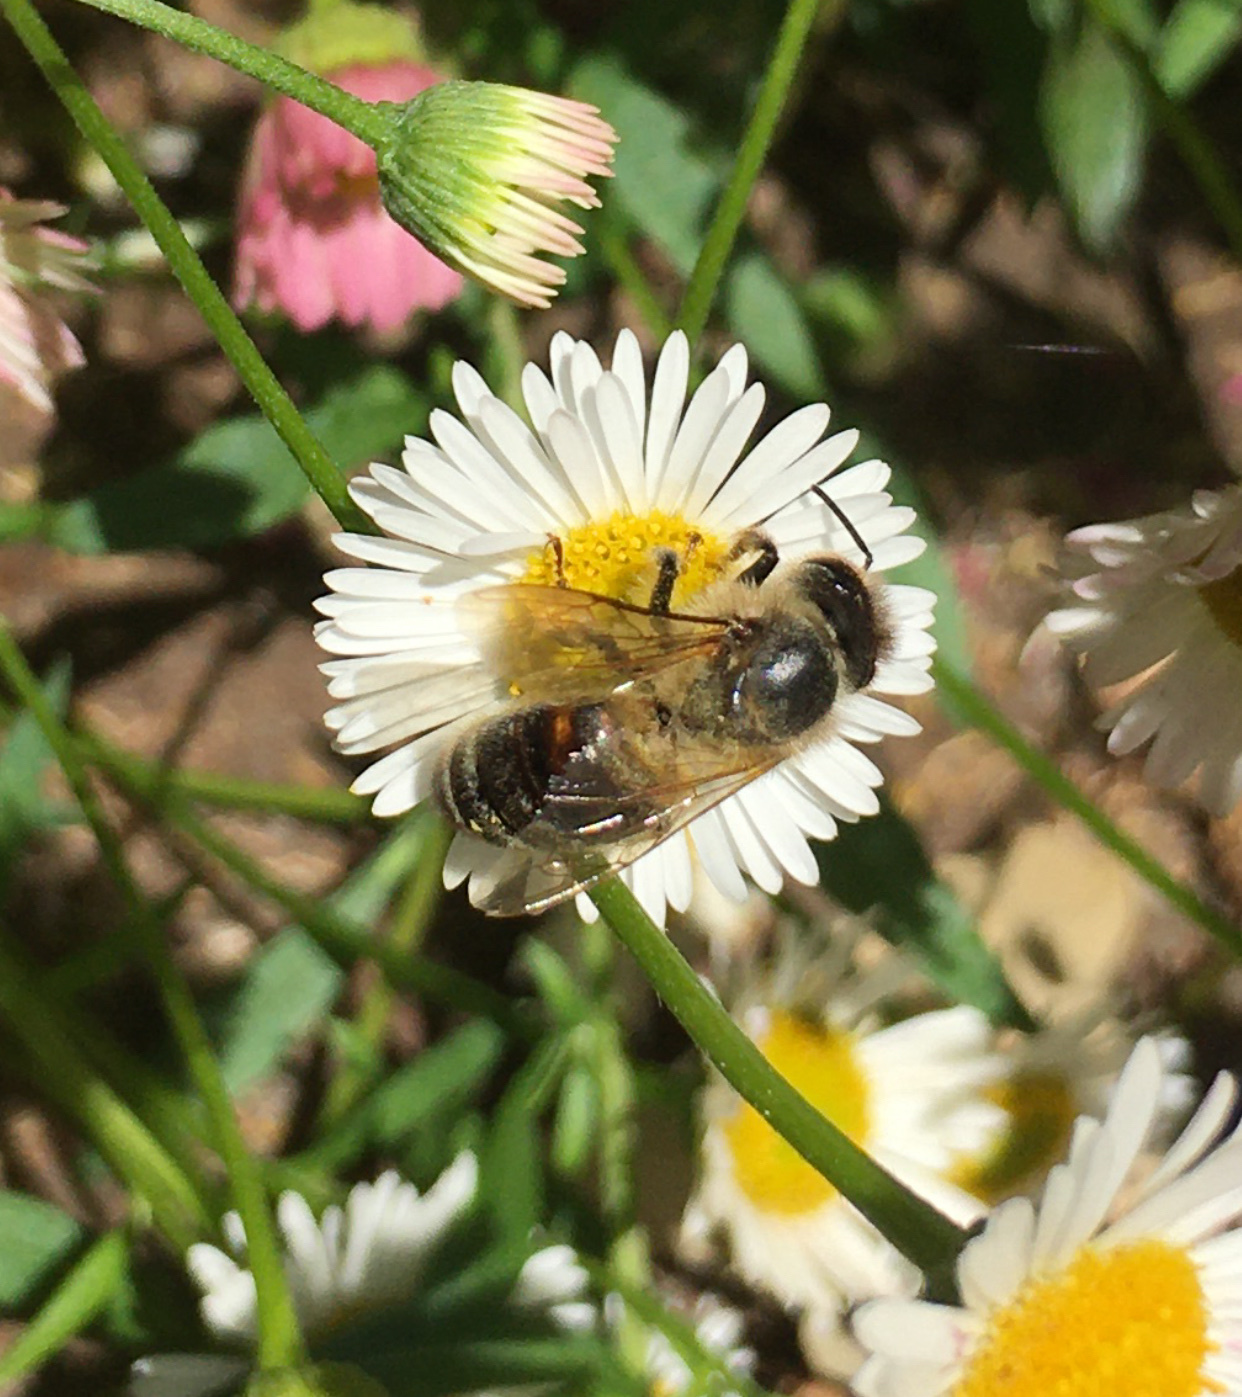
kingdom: Animalia
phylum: Arthropoda
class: Insecta
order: Hymenoptera
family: Apidae
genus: Apis
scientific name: Apis mellifera
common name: Honey bee
